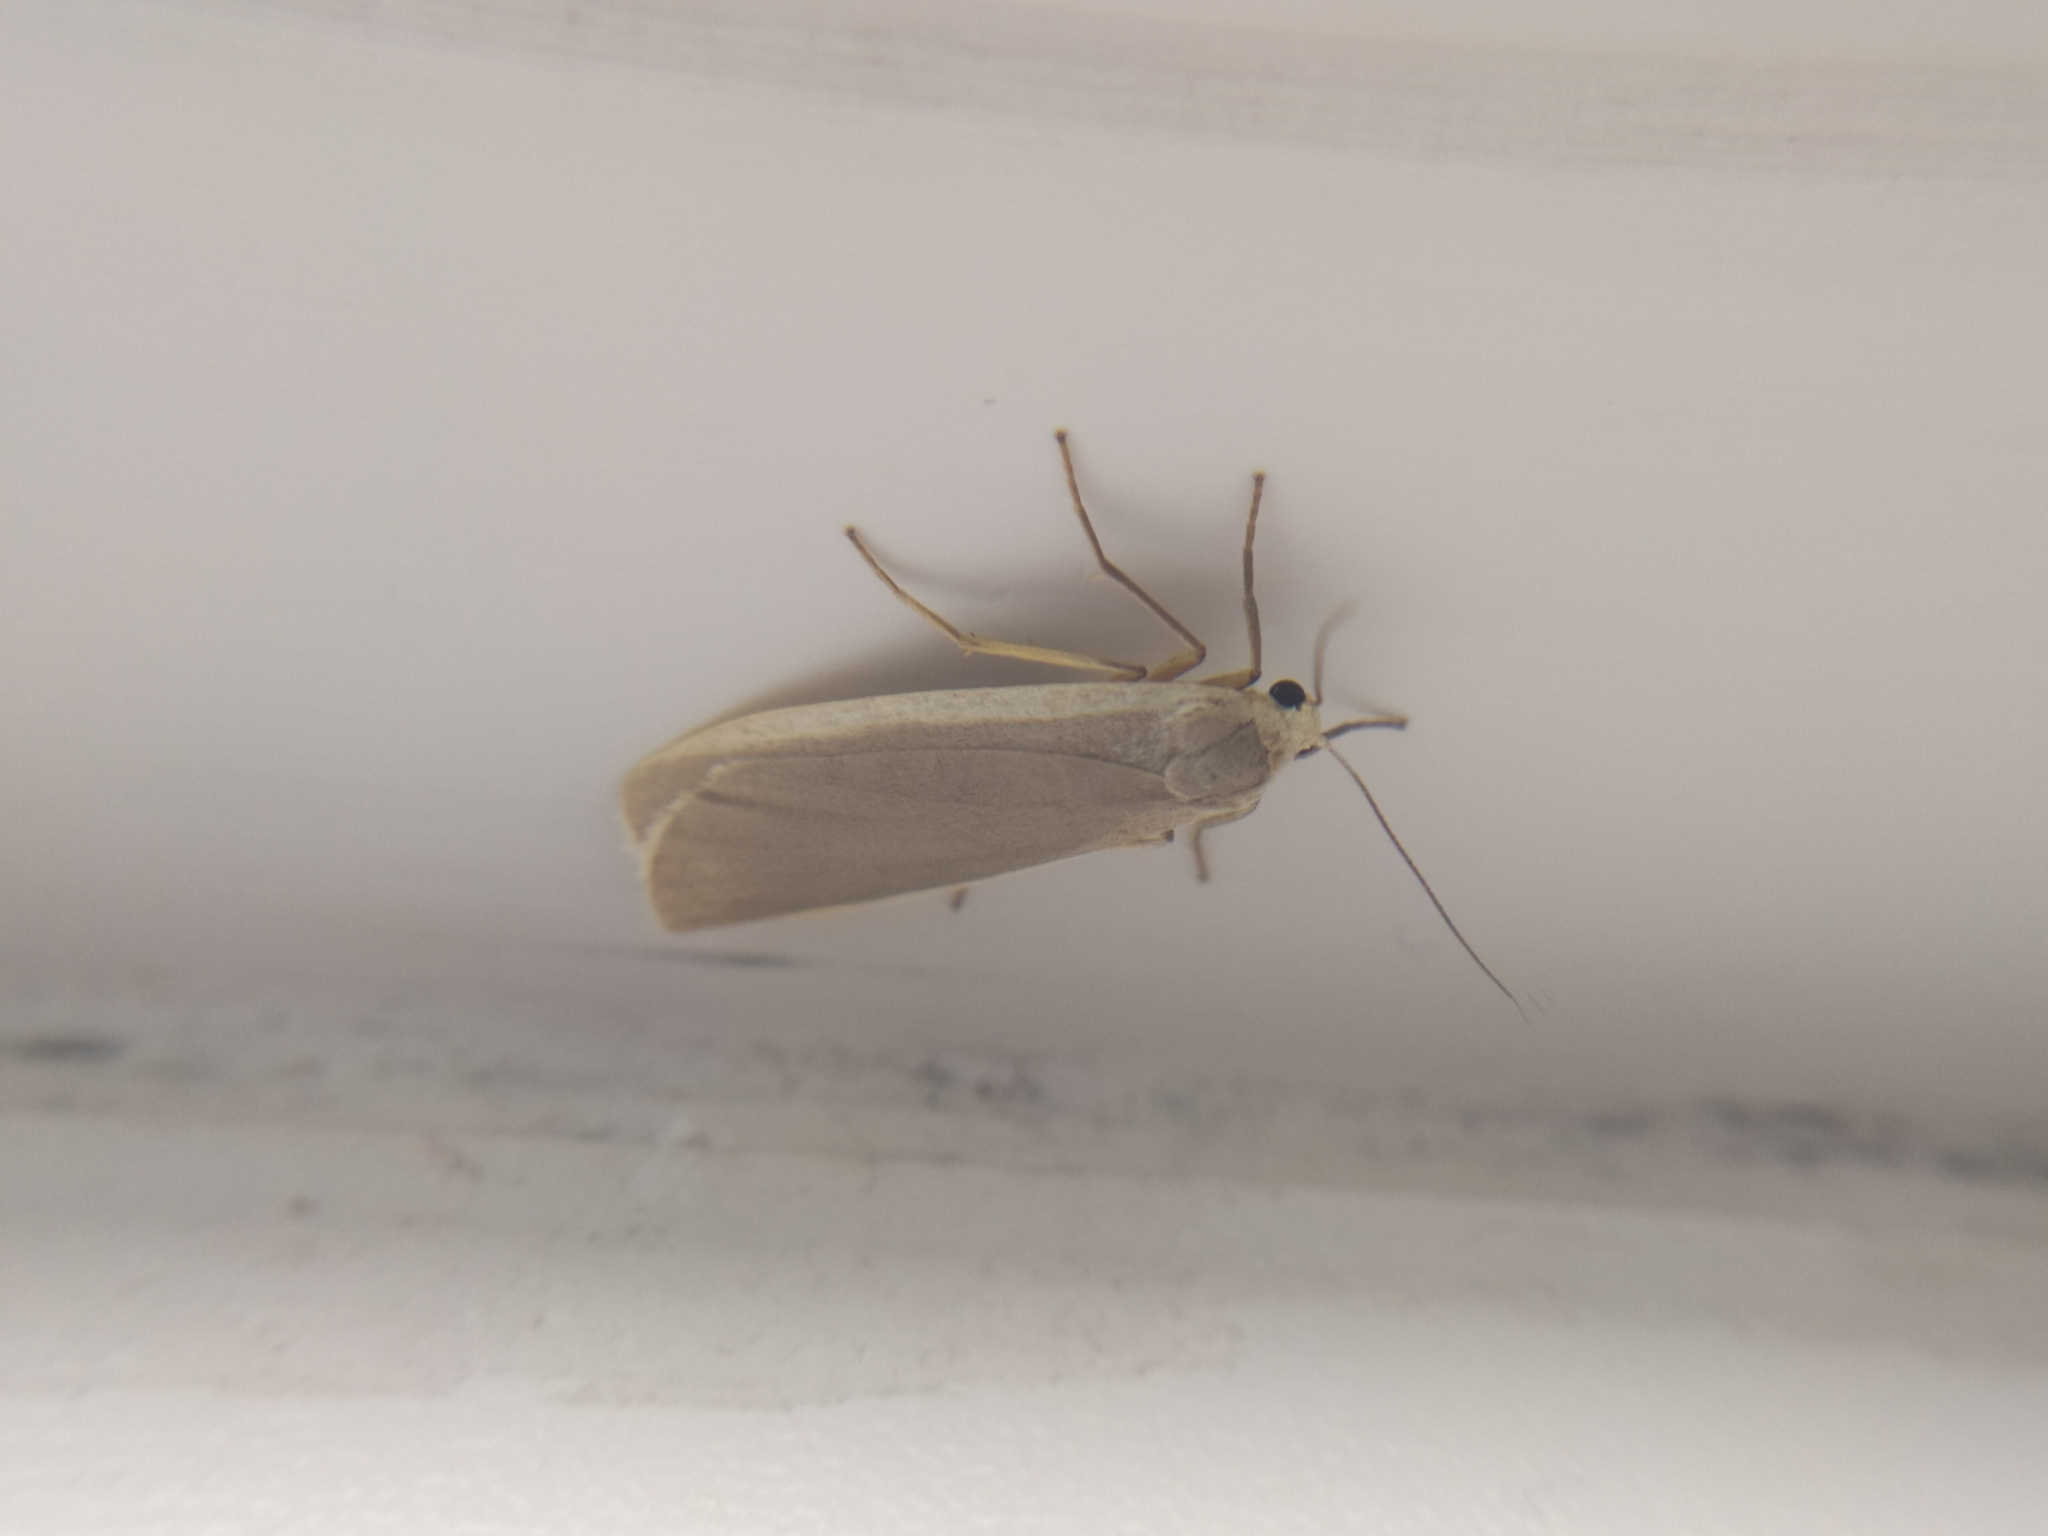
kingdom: Animalia
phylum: Arthropoda
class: Insecta
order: Lepidoptera
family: Erebidae
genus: Nyea
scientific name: Nyea lurideola
